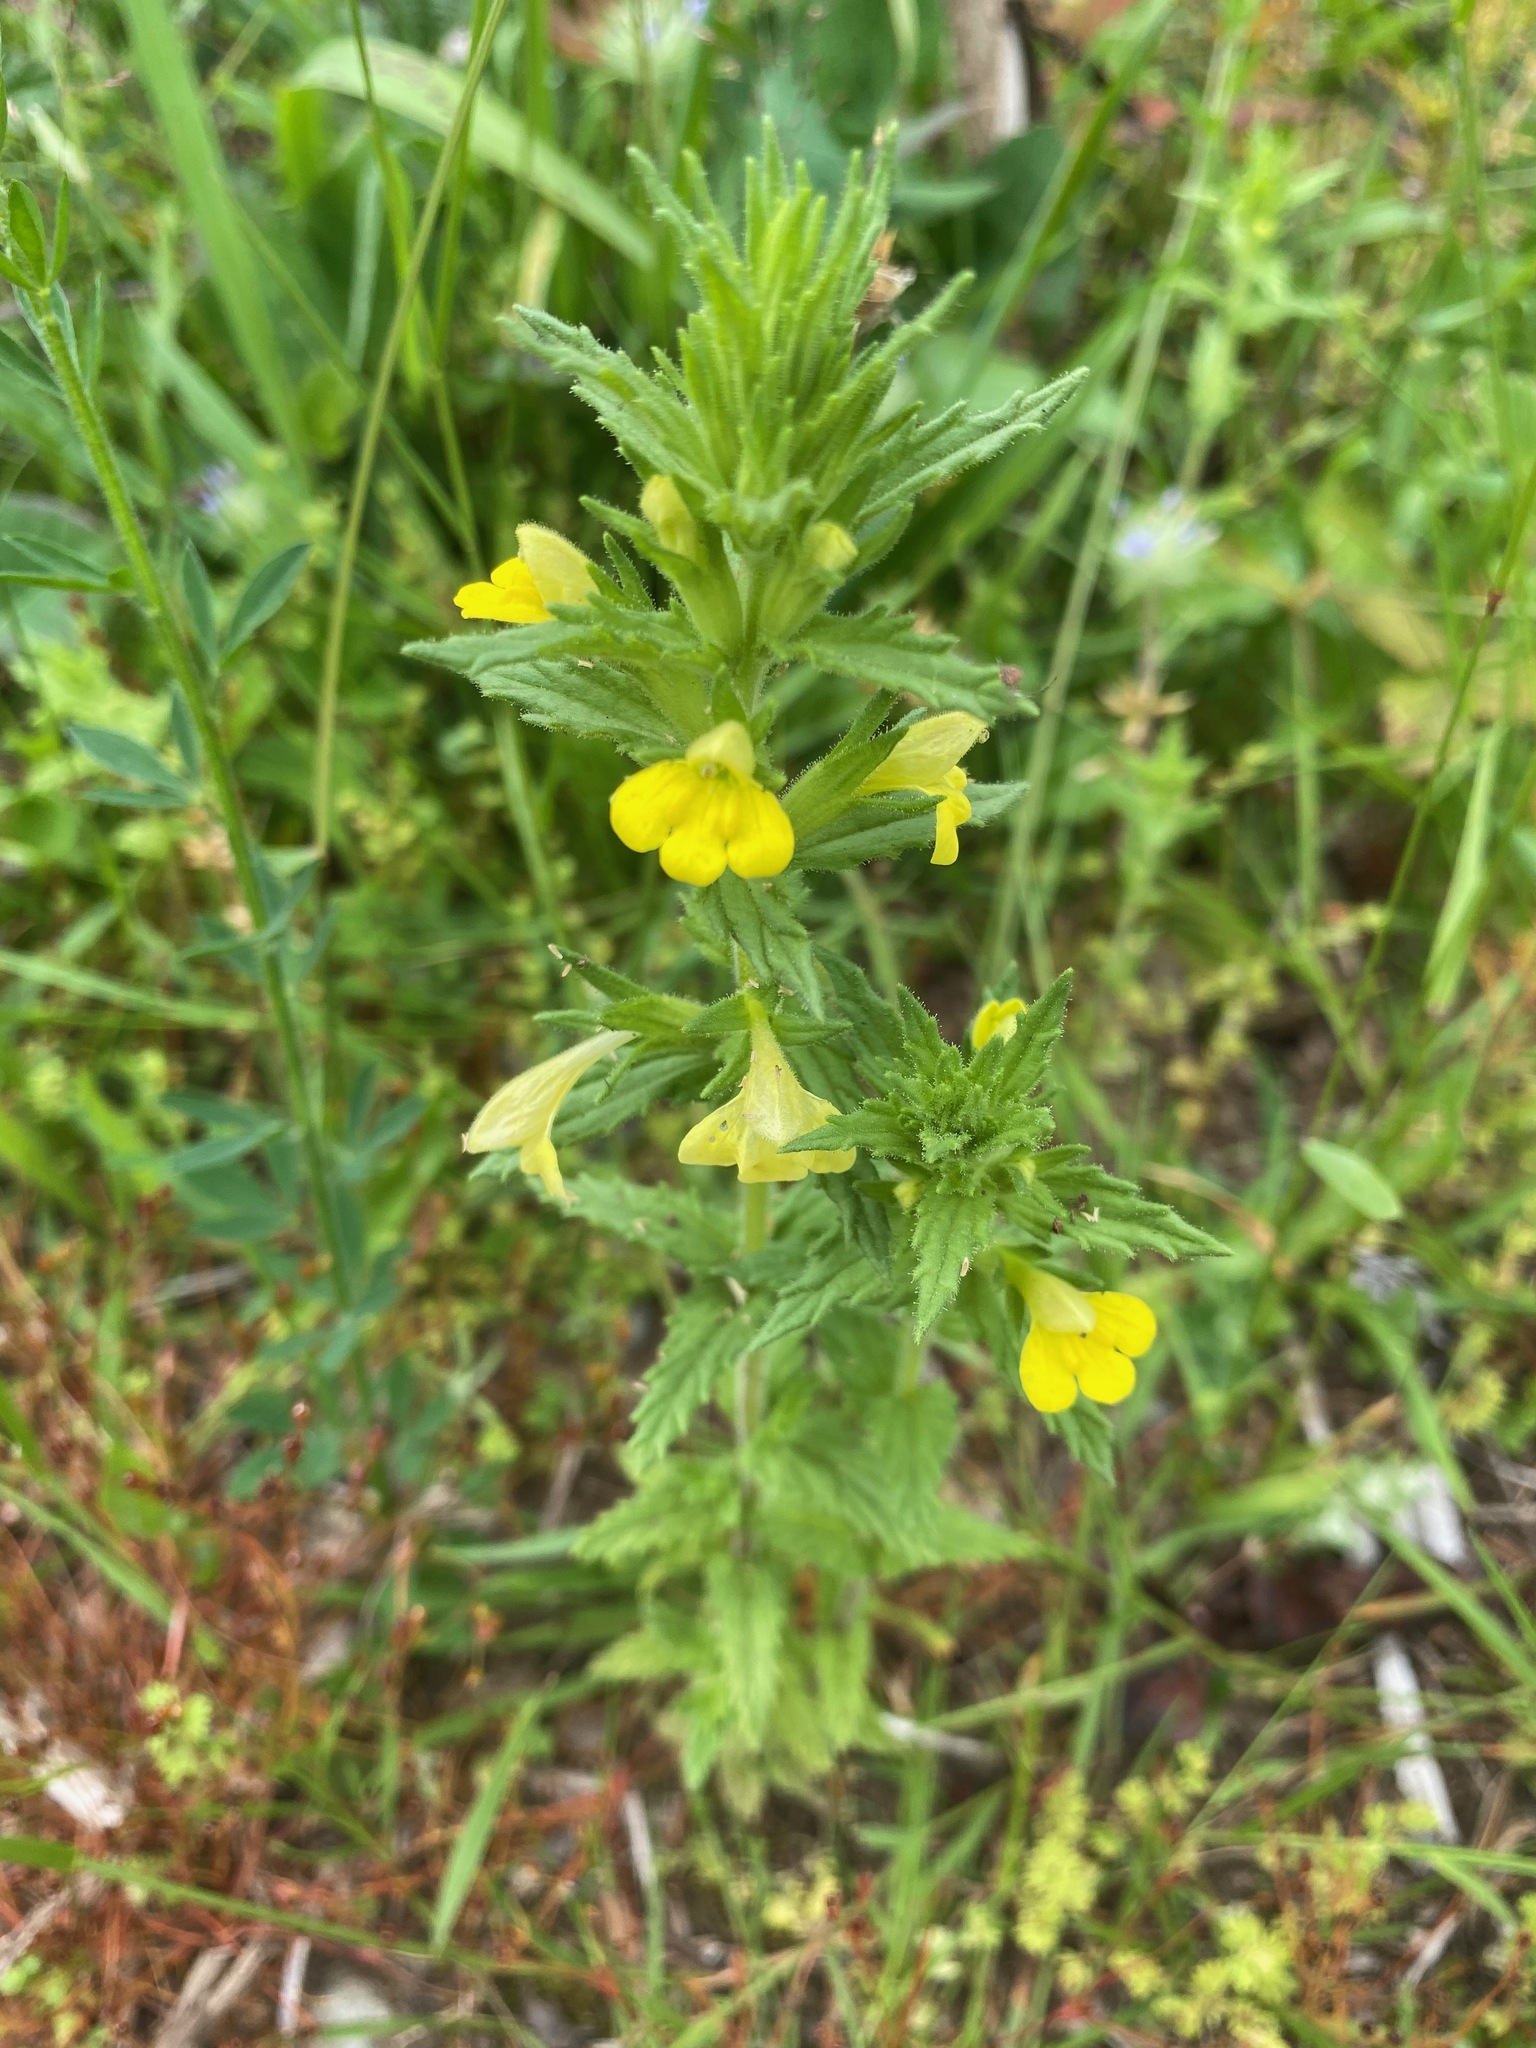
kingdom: Plantae
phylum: Tracheophyta
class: Magnoliopsida
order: Lamiales
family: Orobanchaceae
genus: Bellardia
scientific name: Bellardia viscosa
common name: Sticky parentucellia
